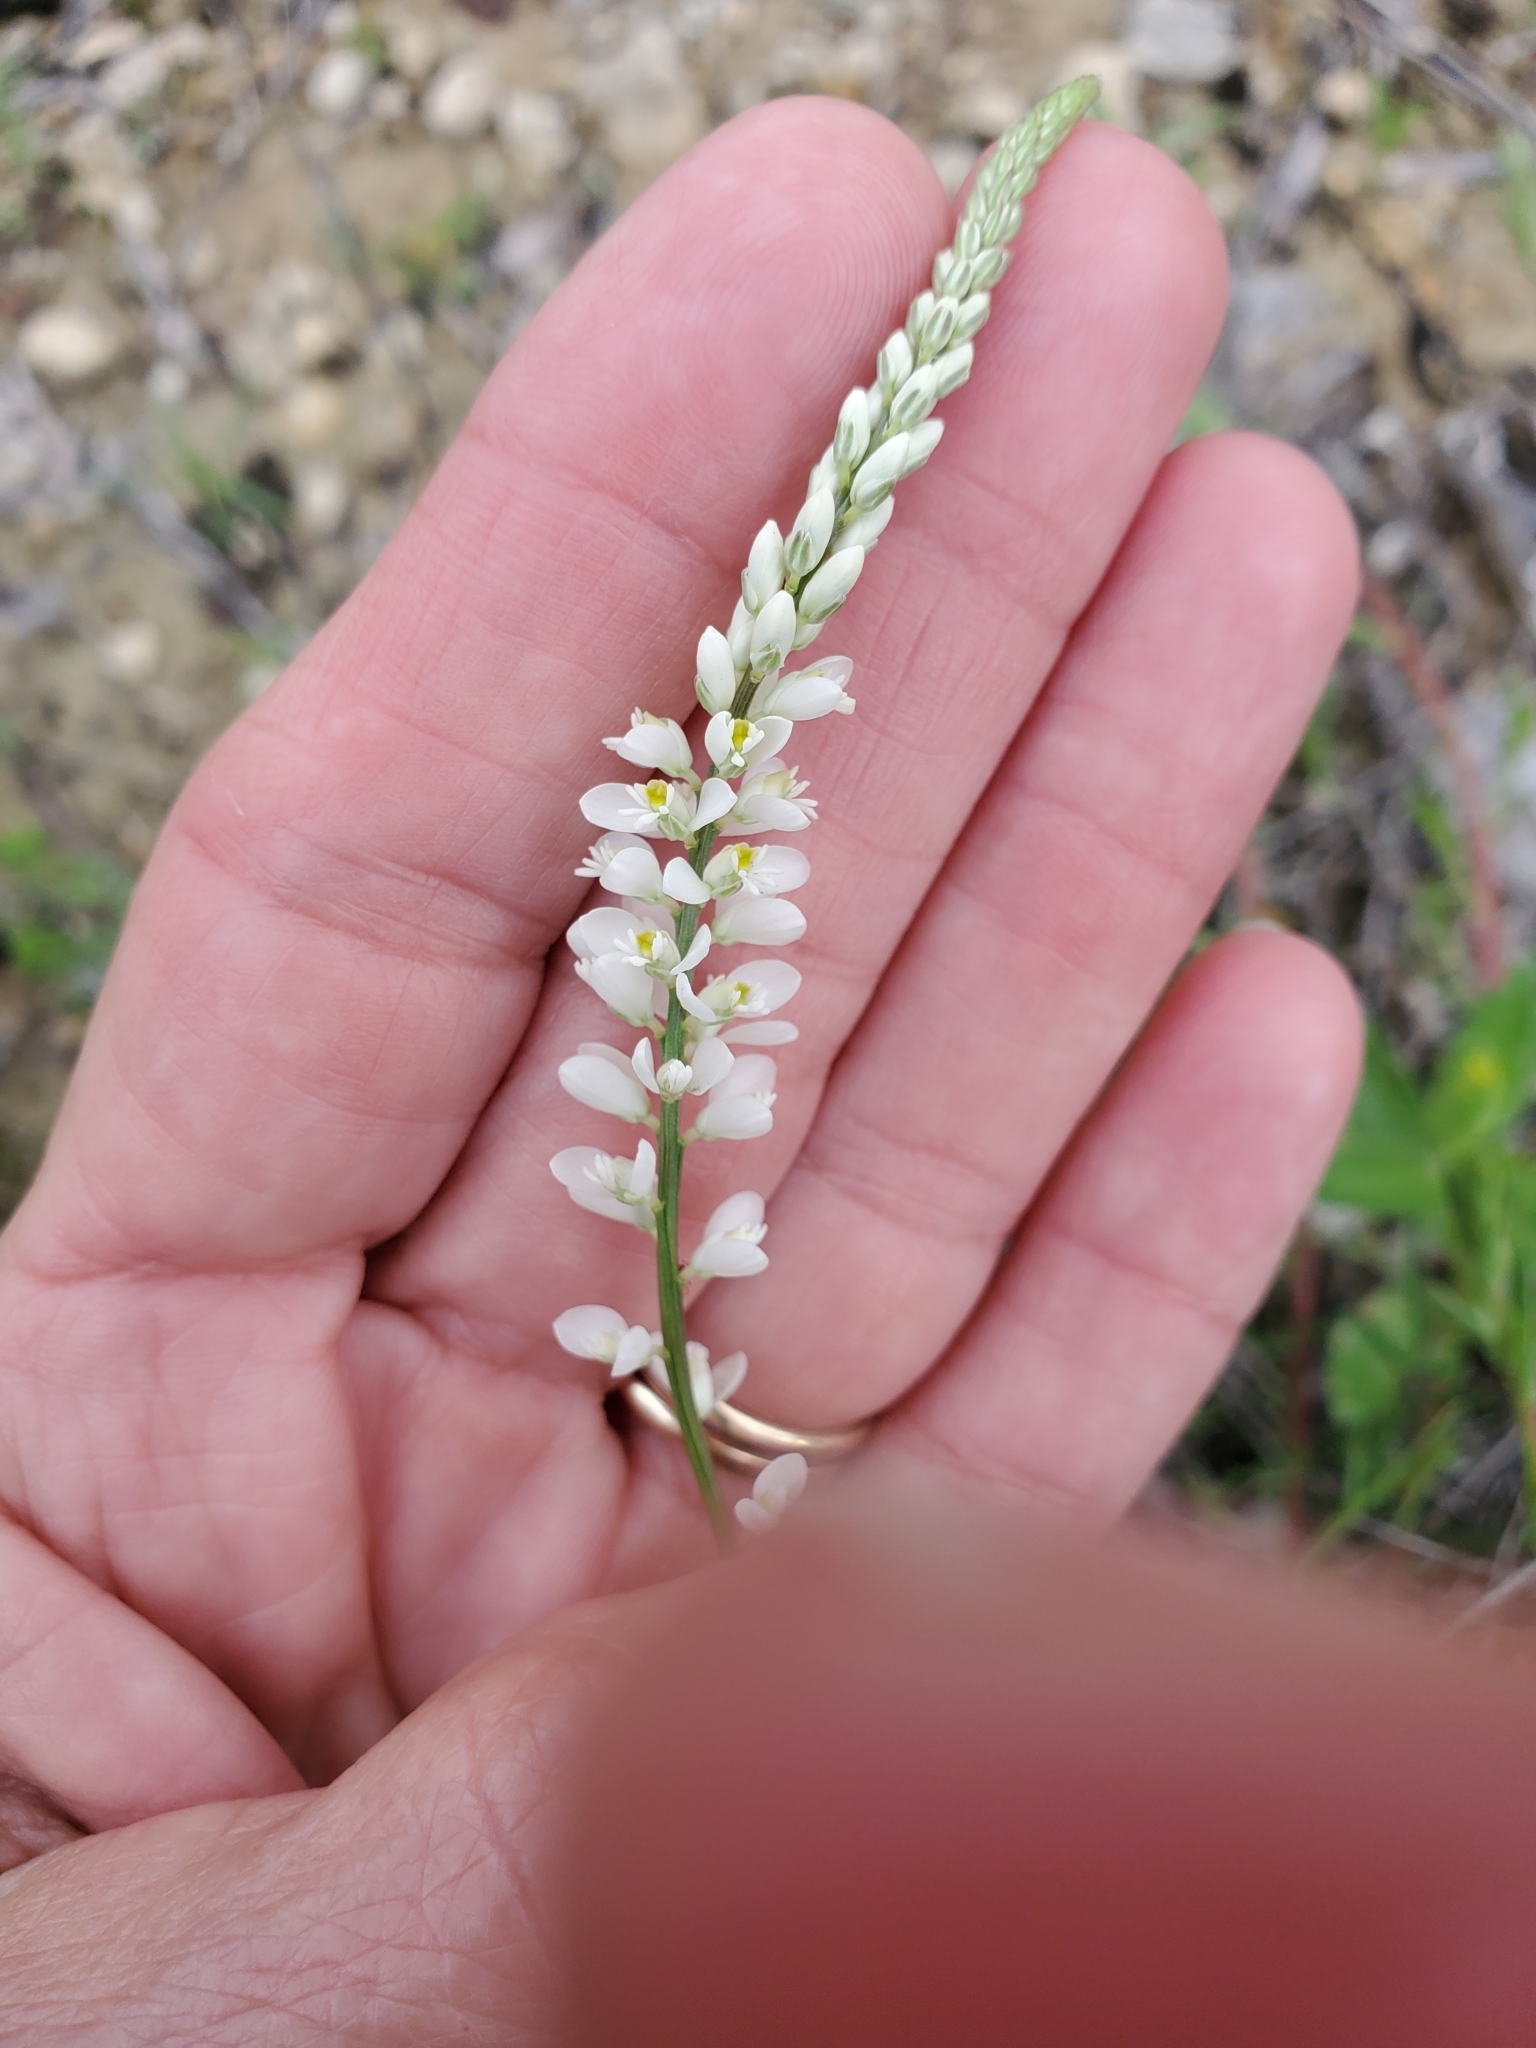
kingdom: Plantae
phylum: Tracheophyta
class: Magnoliopsida
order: Fabales
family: Polygalaceae
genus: Polygala
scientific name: Polygala alba
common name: White milkwort
